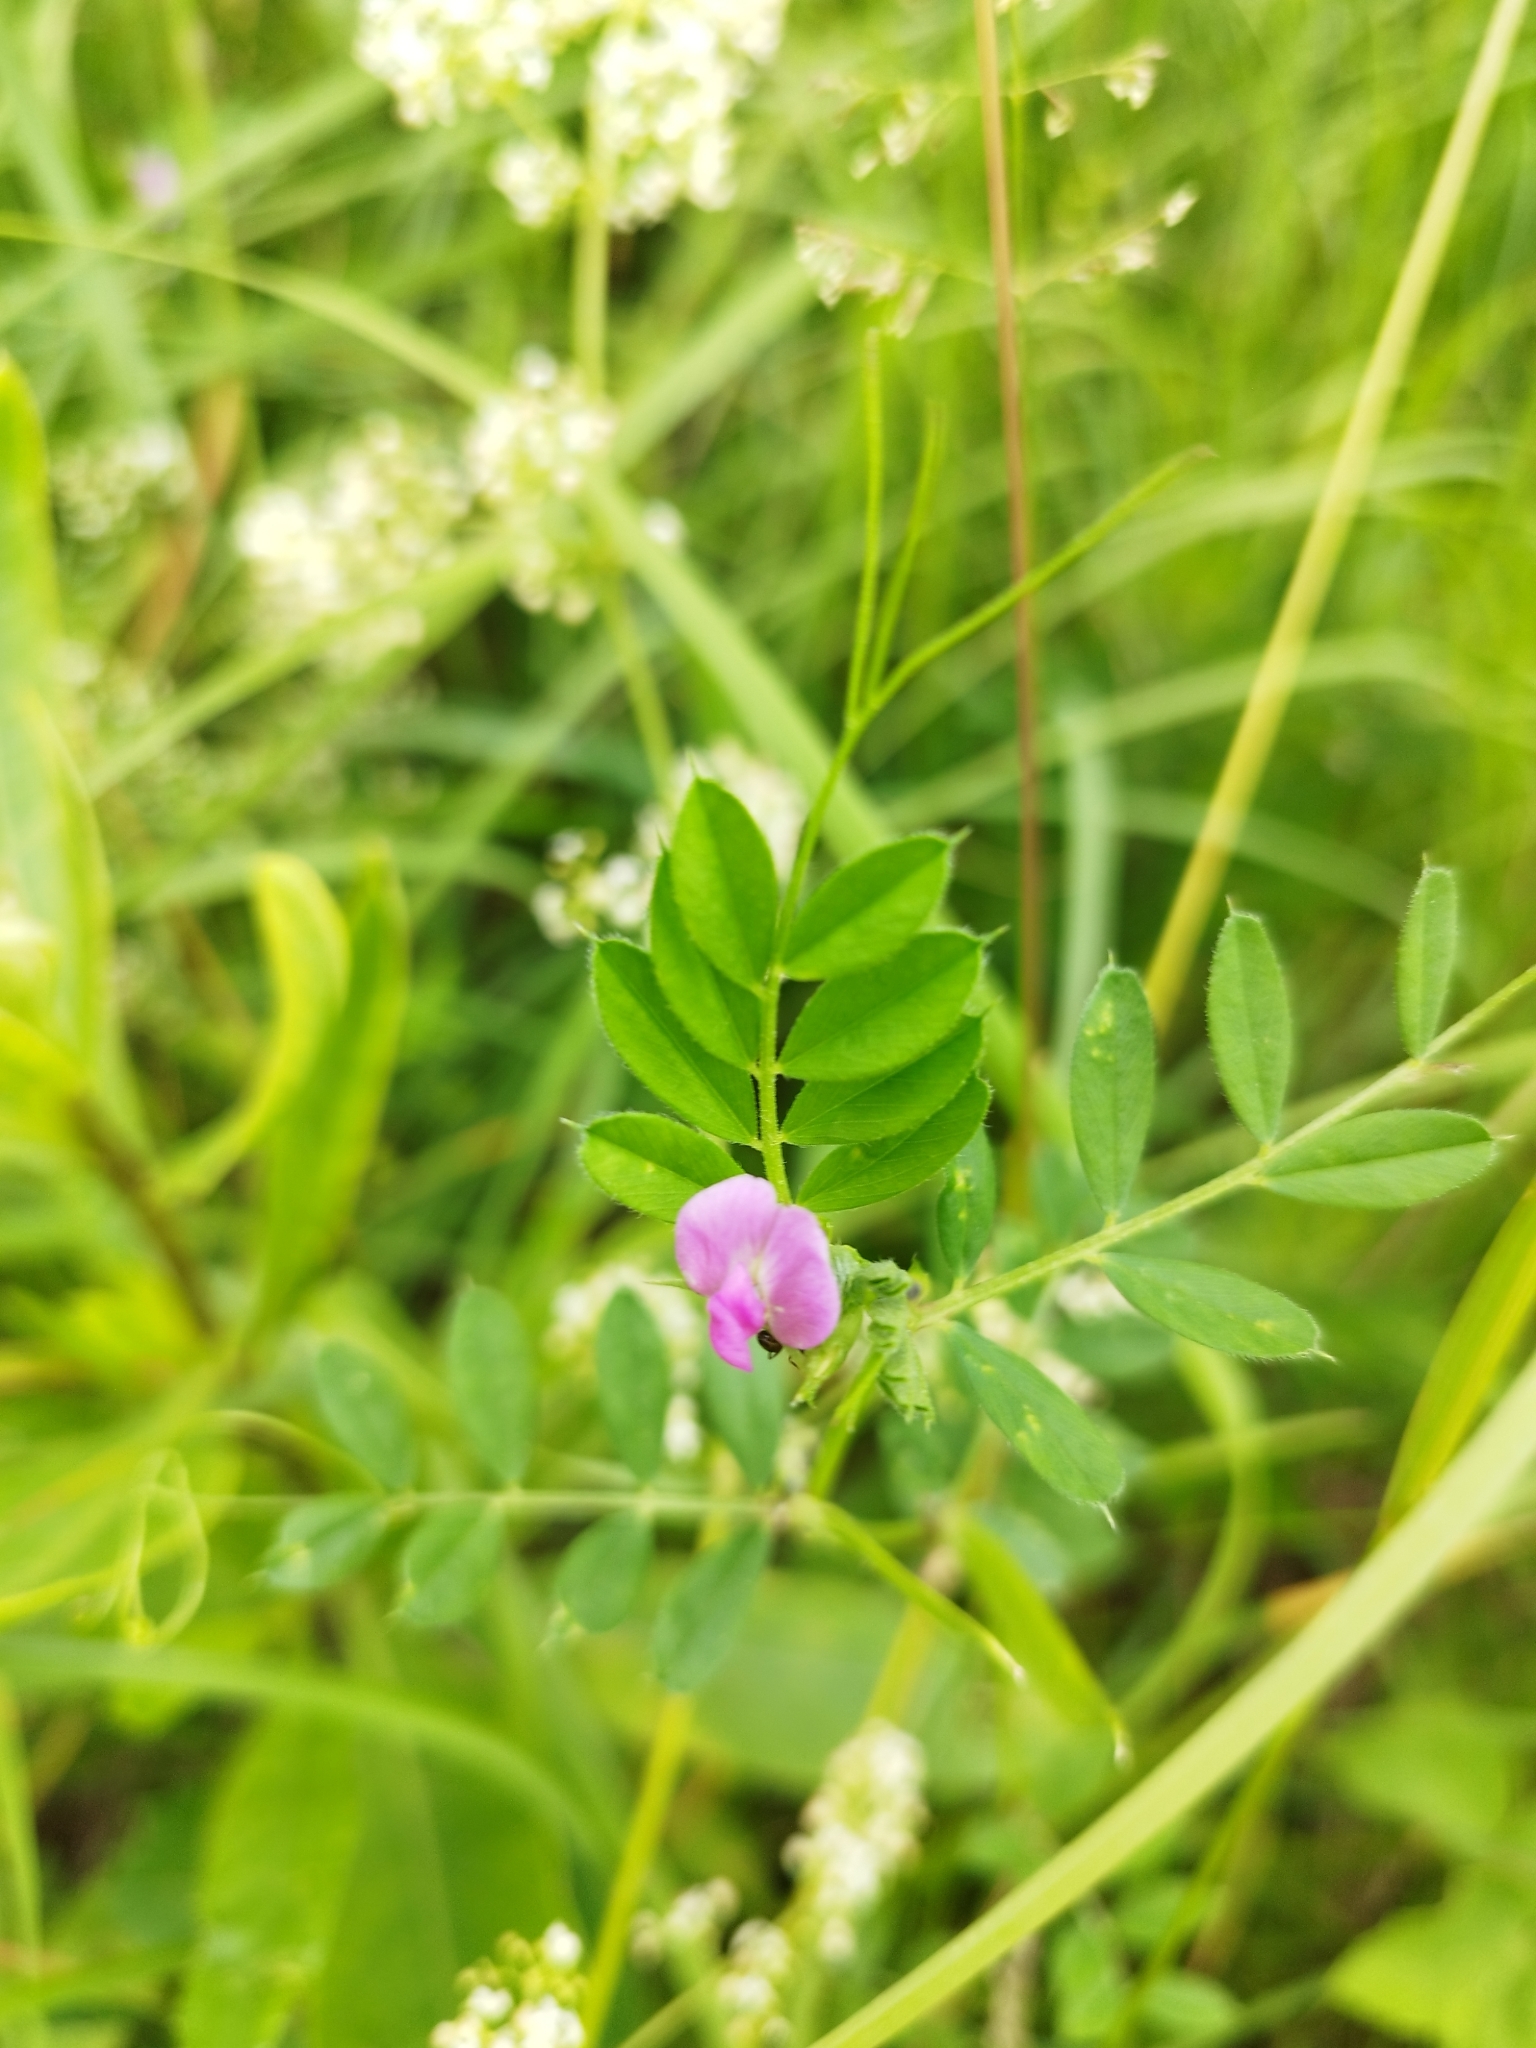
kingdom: Plantae
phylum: Tracheophyta
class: Magnoliopsida
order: Fabales
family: Fabaceae
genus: Vicia
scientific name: Vicia sativa
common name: Garden vetch
